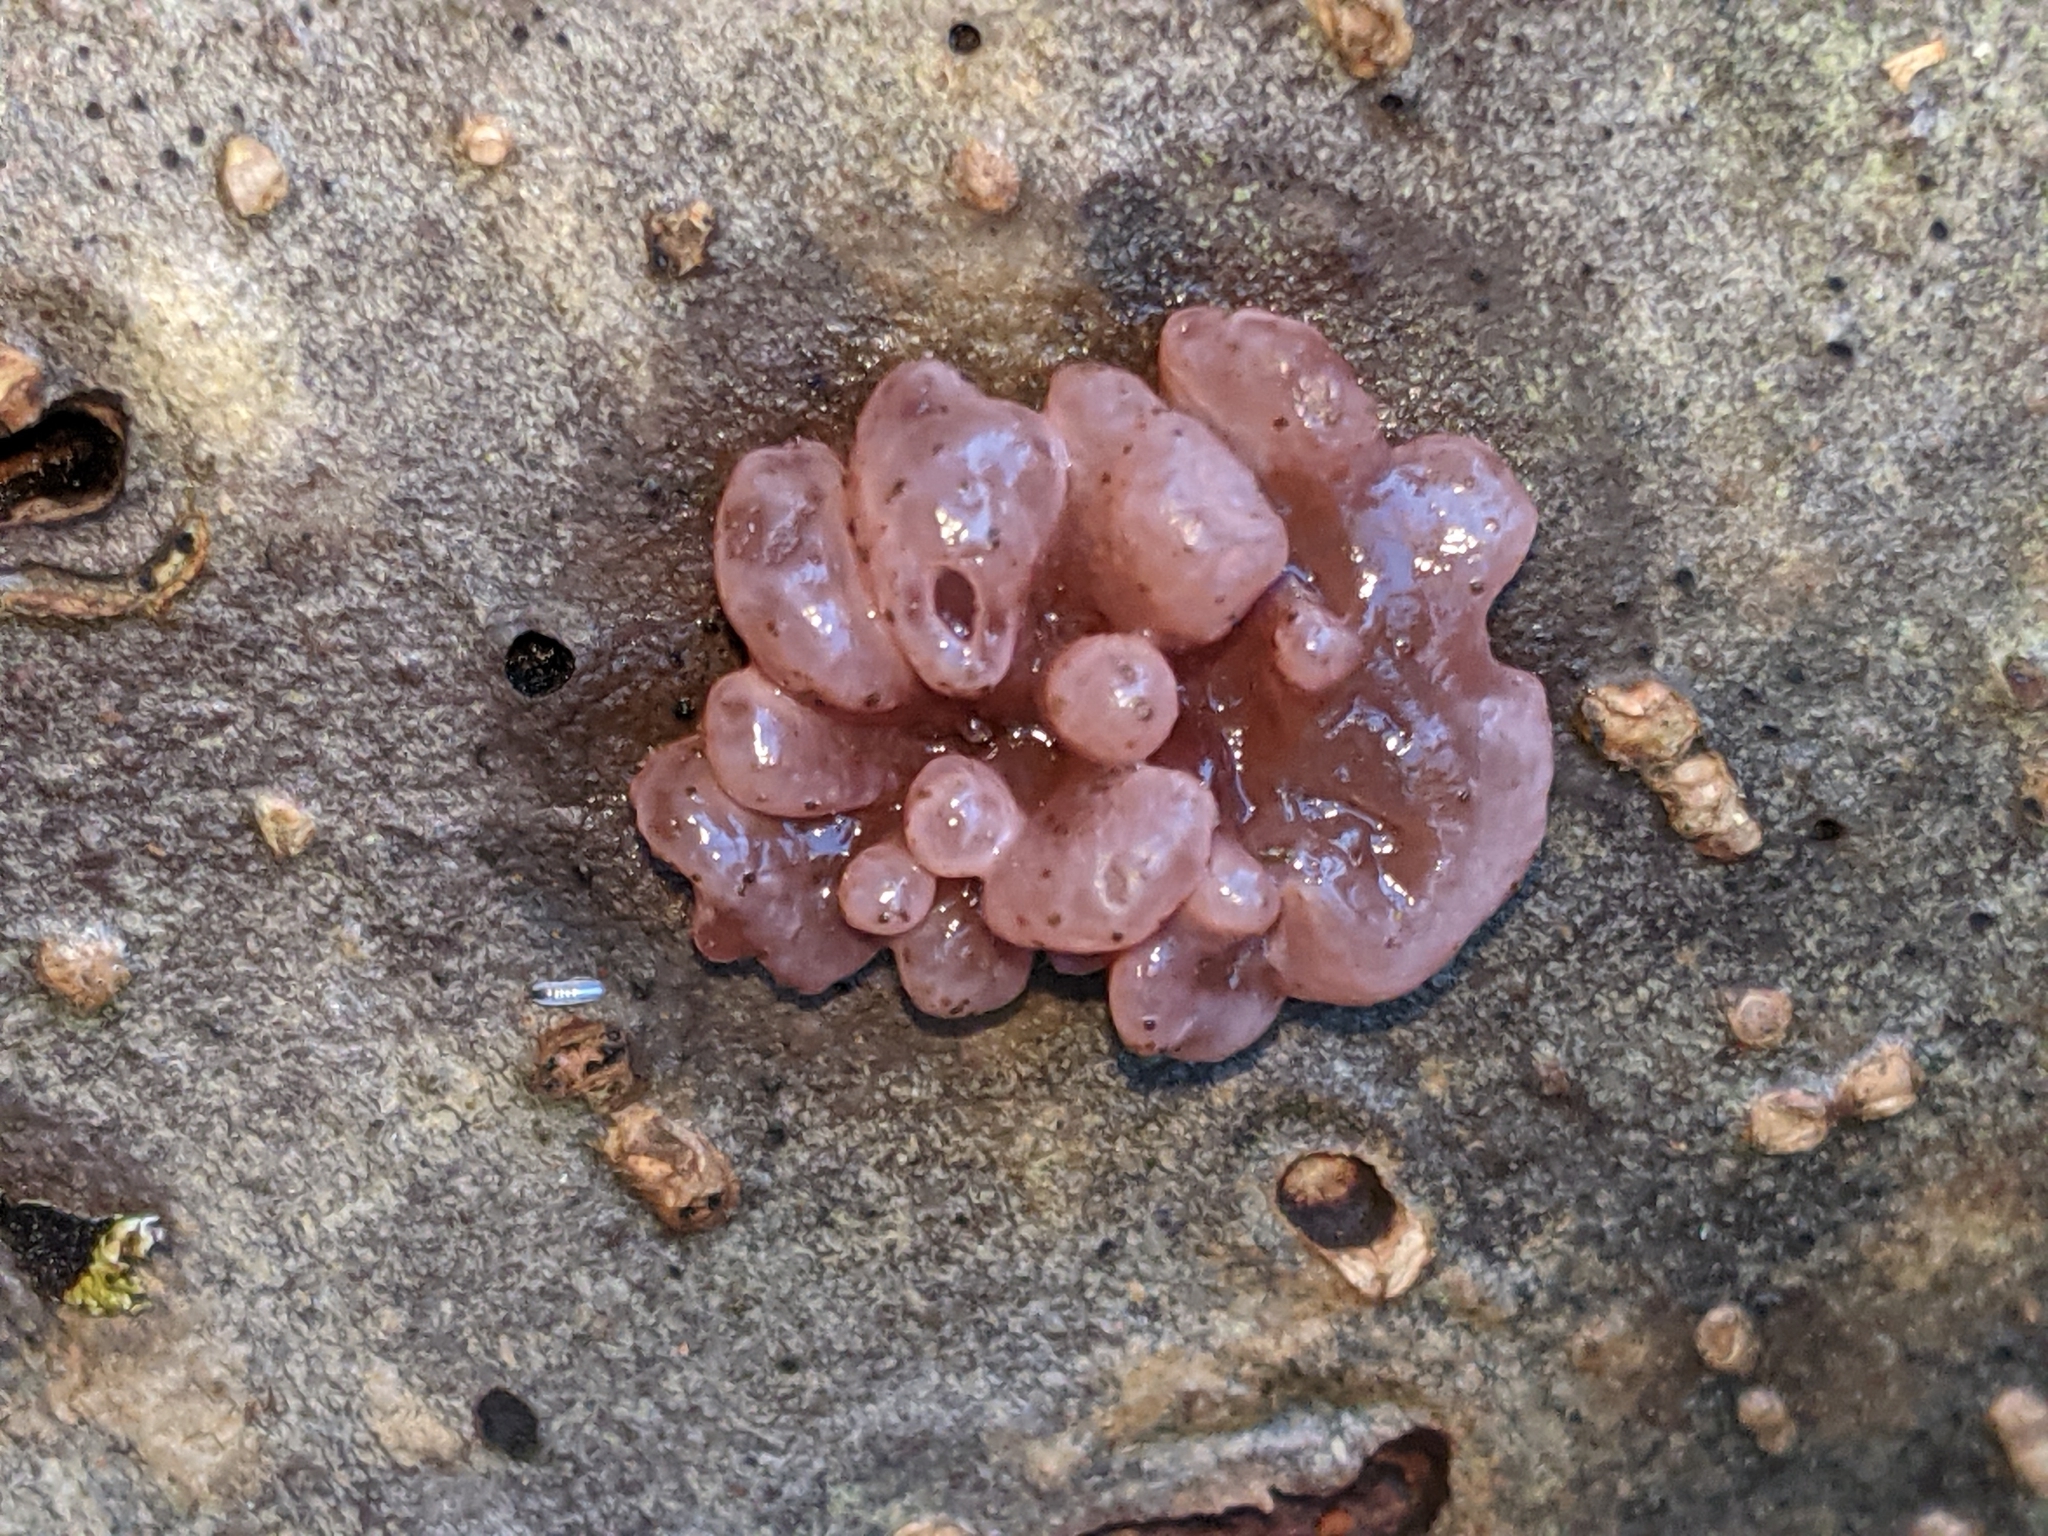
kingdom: Fungi
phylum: Ascomycota
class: Leotiomycetes
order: Helotiales
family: Gelatinodiscaceae
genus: Ascocoryne
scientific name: Ascocoryne sarcoides
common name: Purple jellydisc
